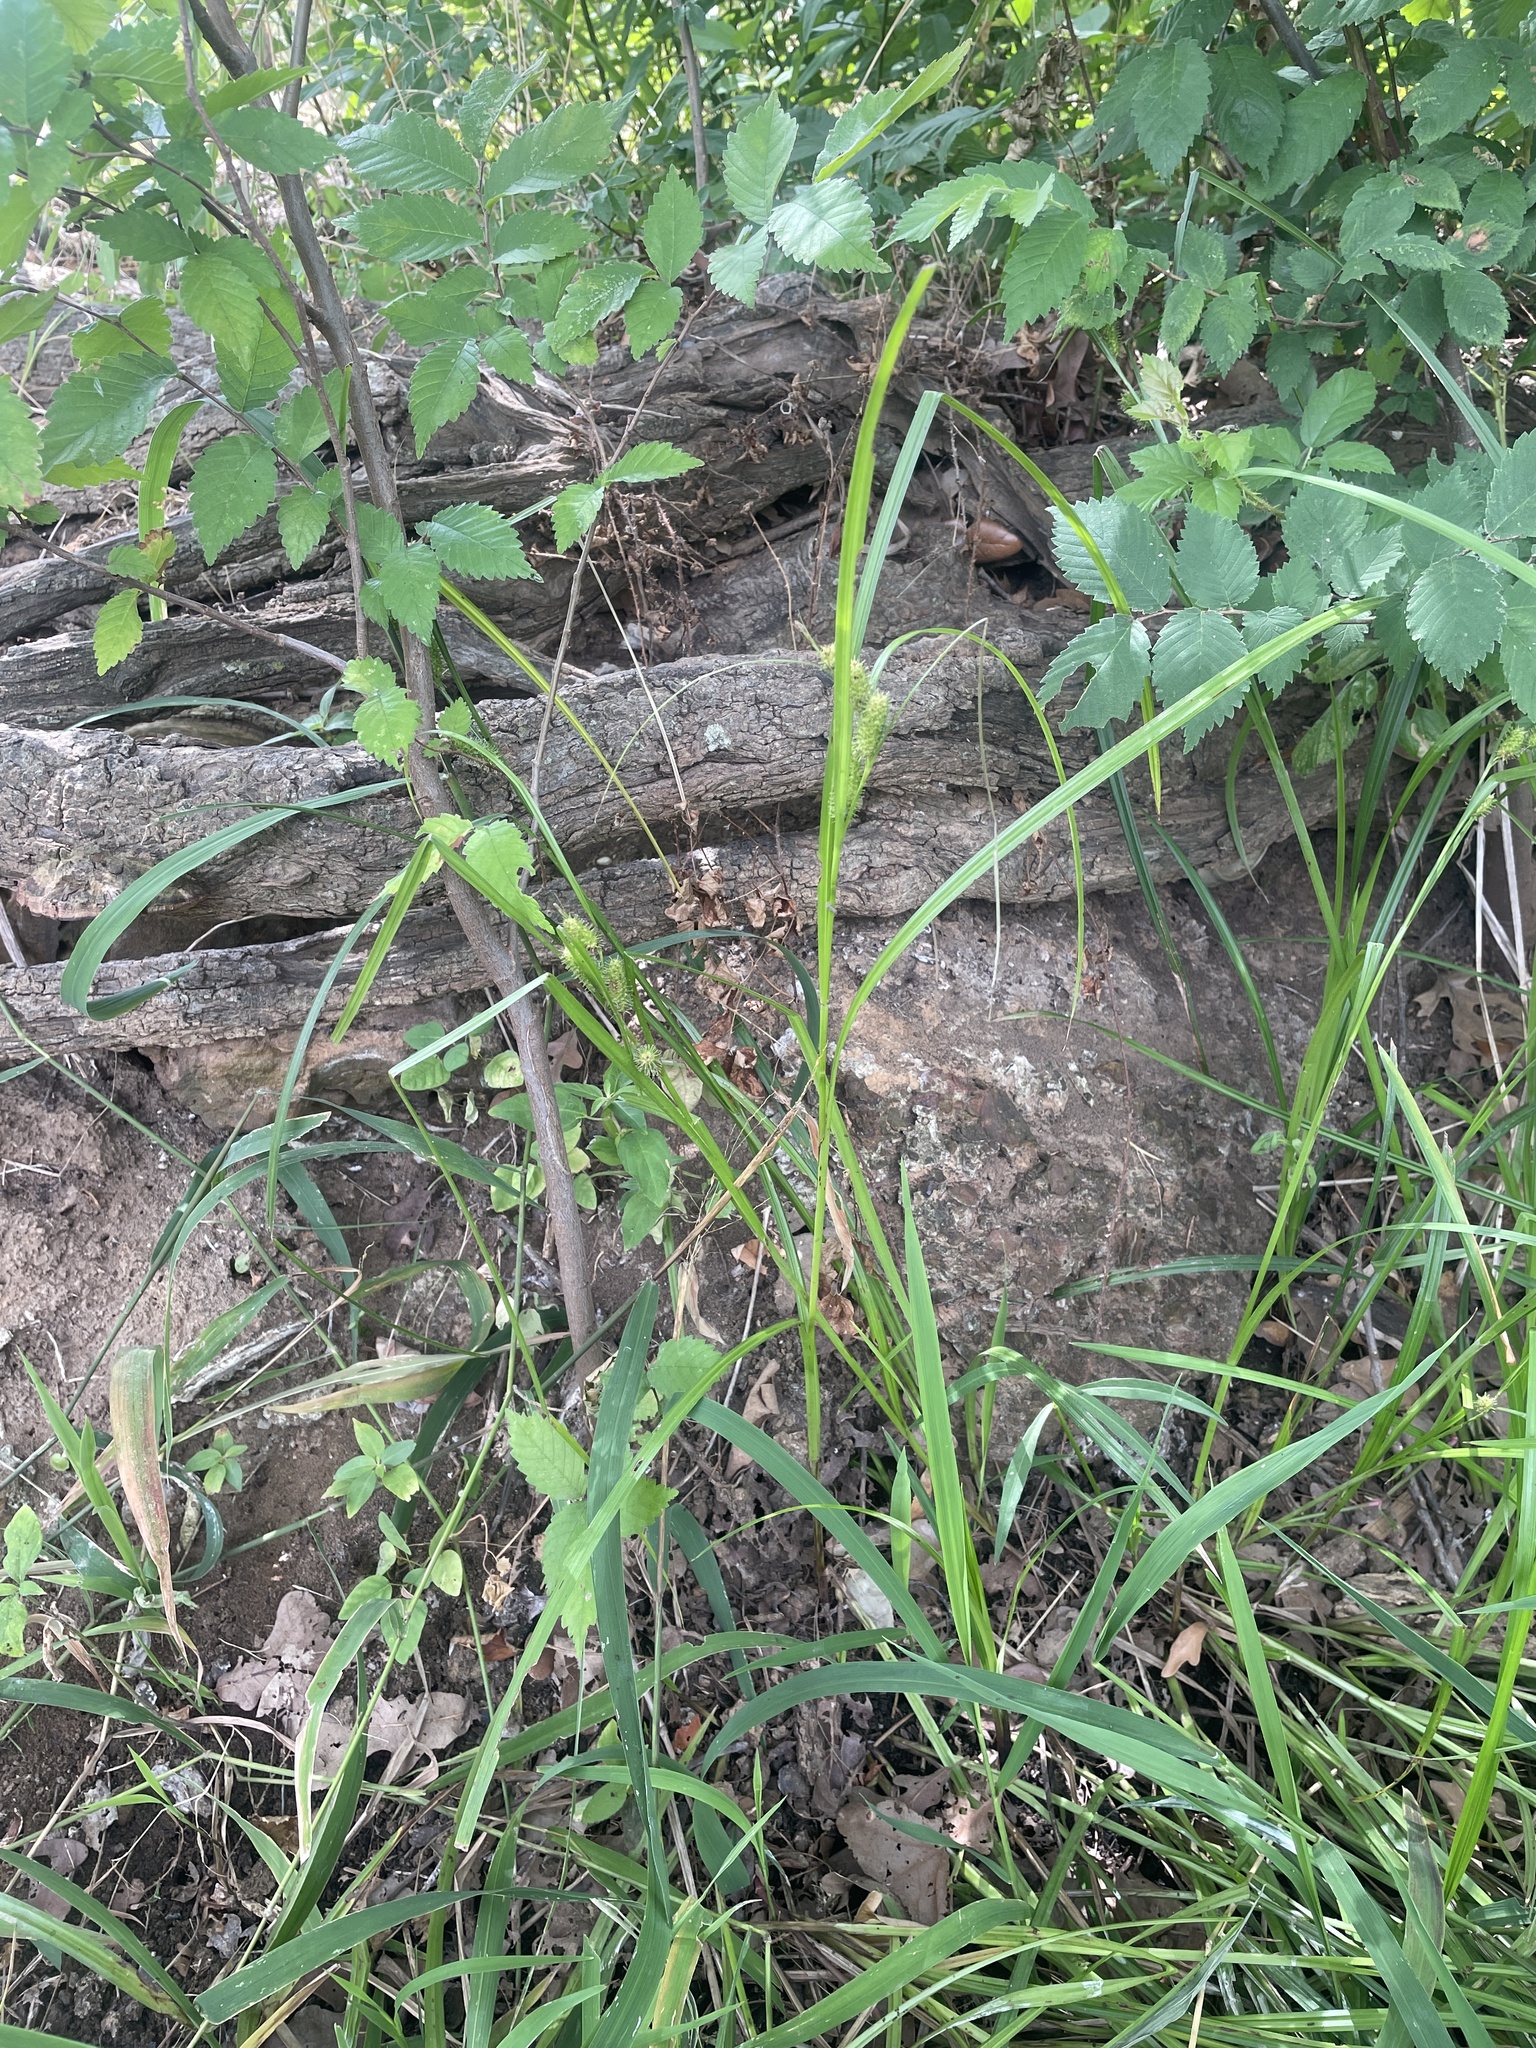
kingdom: Plantae
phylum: Tracheophyta
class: Liliopsida
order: Poales
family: Cyperaceae
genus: Carex
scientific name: Carex aureolensis
